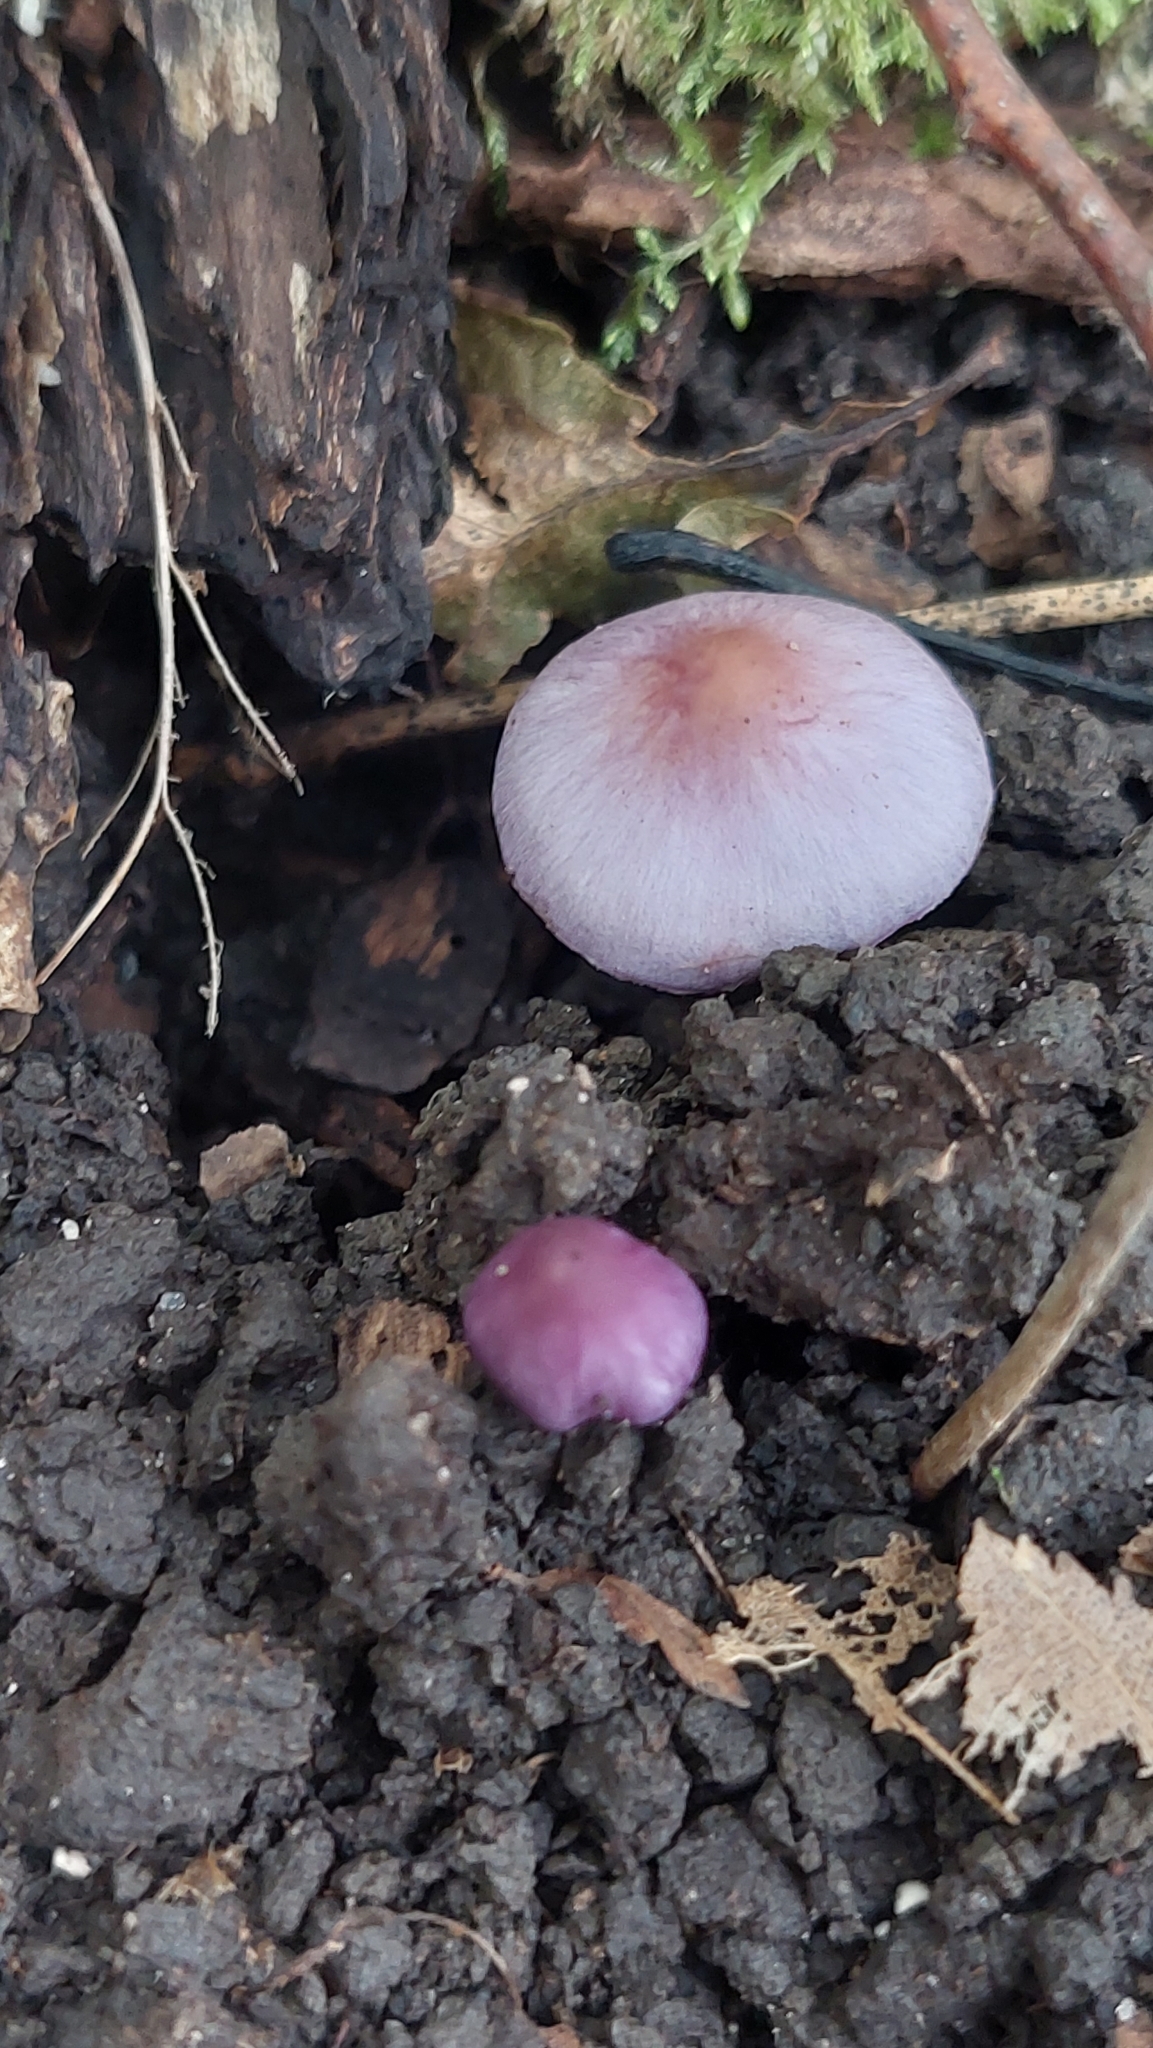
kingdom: Fungi
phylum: Basidiomycota
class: Agaricomycetes
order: Agaricales
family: Hydnangiaceae
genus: Laccaria
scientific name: Laccaria amethystina
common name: Amethyst deceiver
